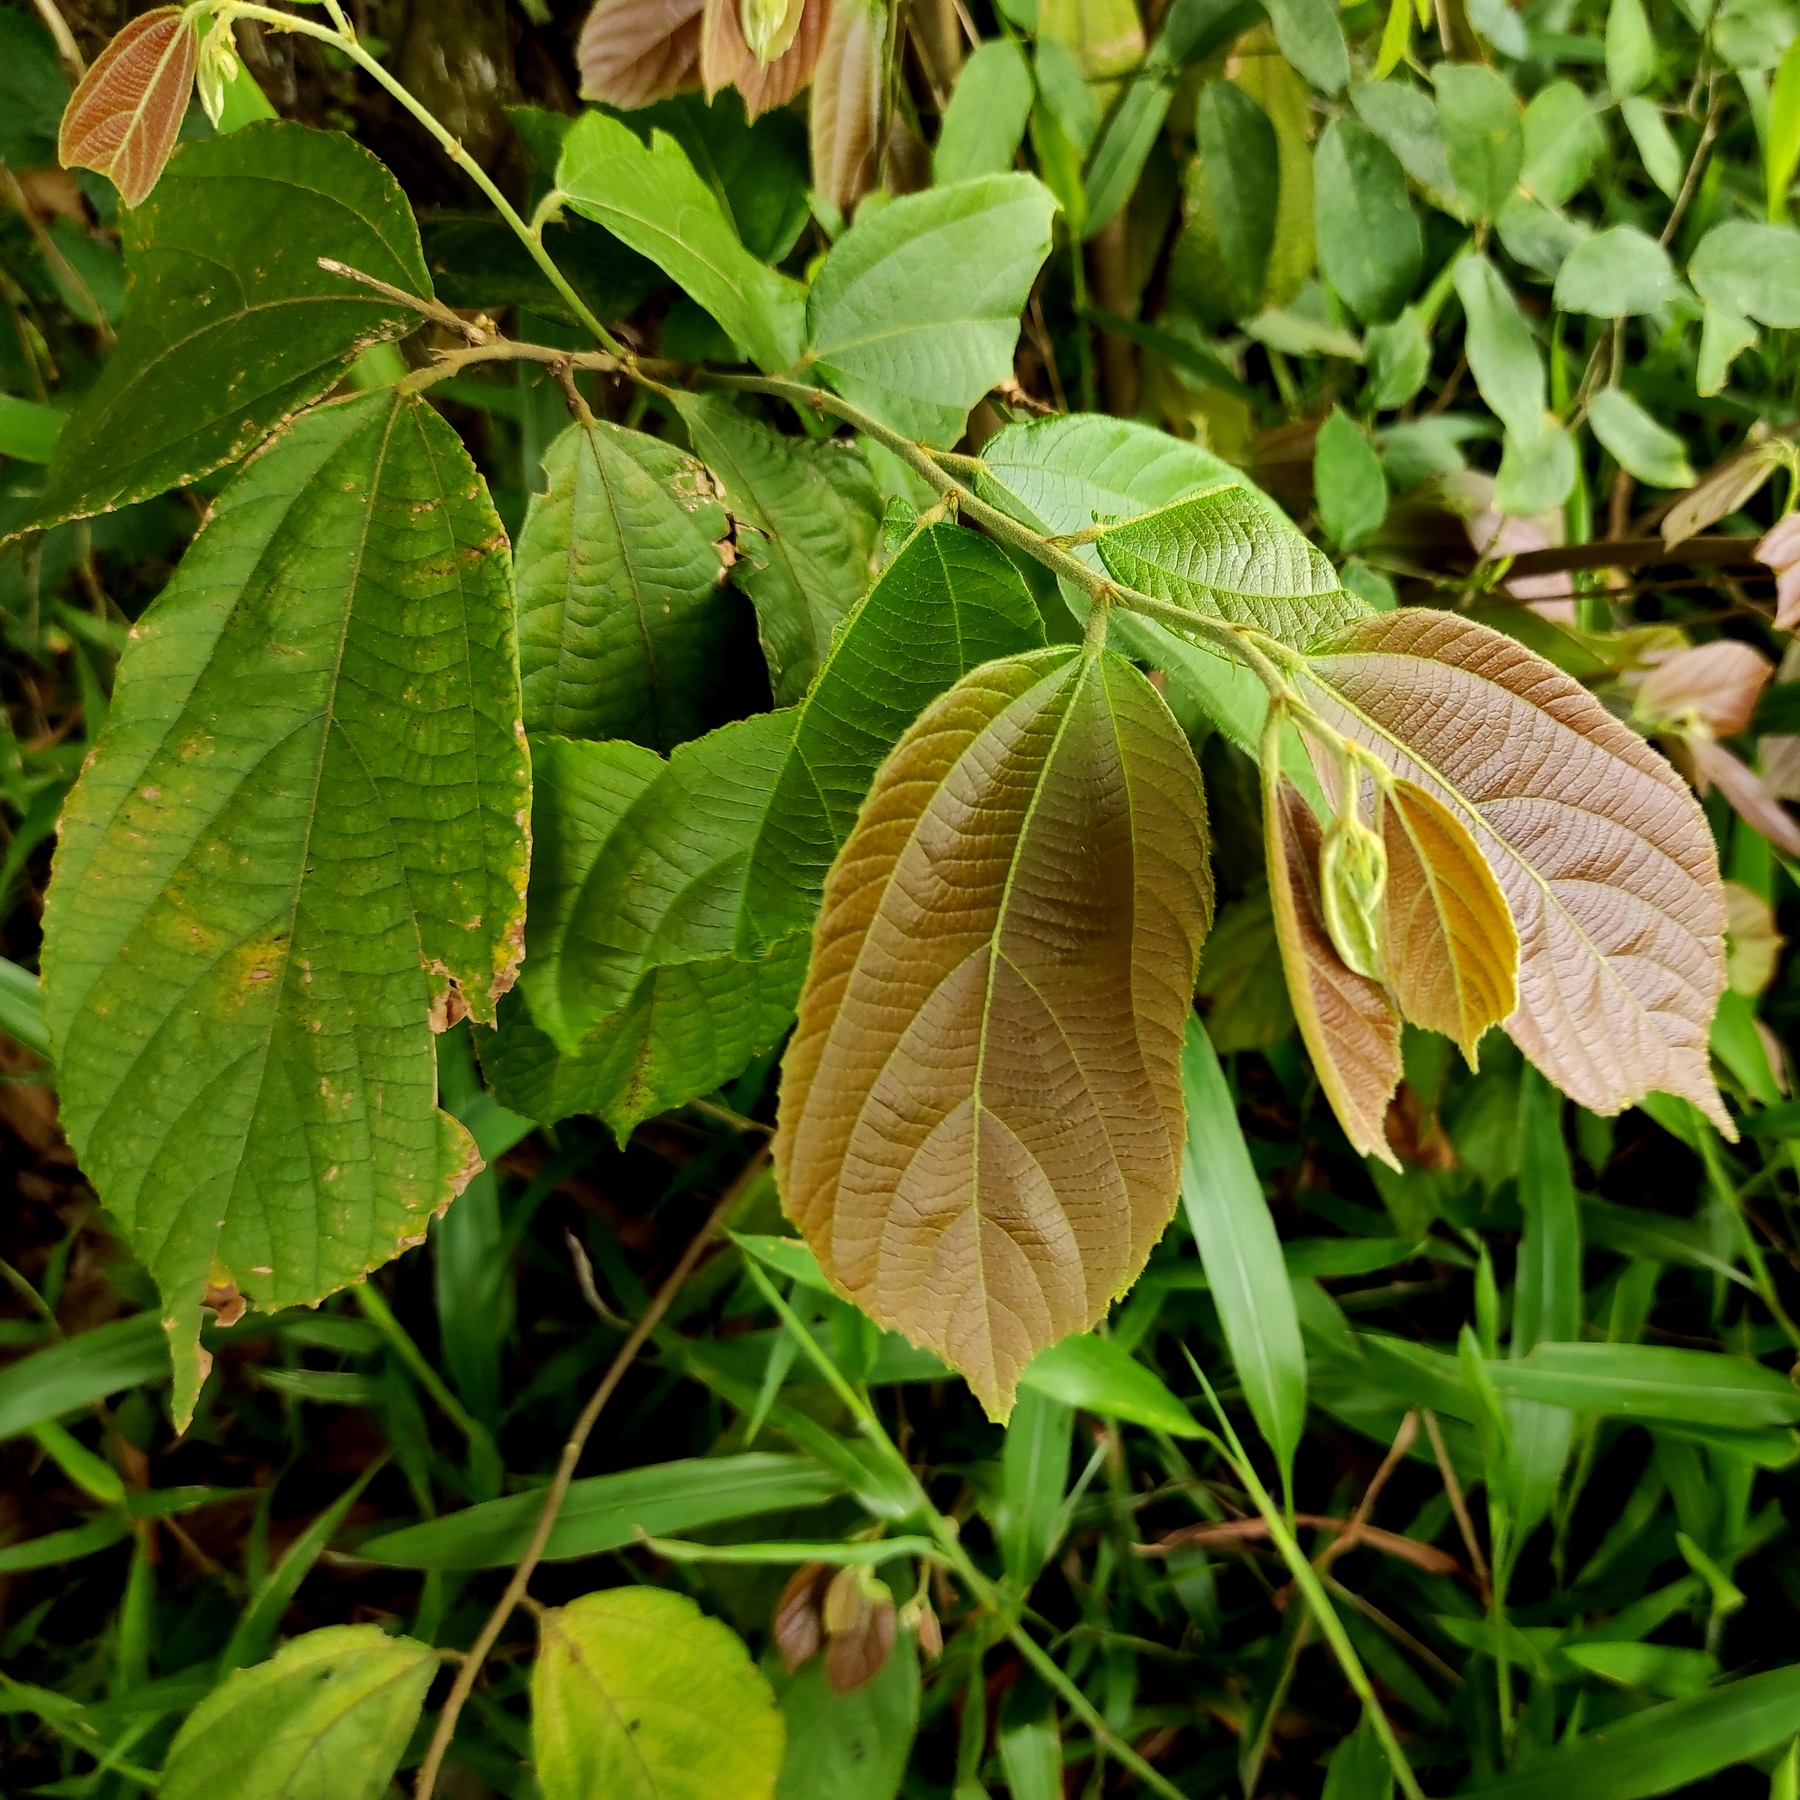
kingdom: Plantae
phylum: Tracheophyta
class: Magnoliopsida
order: Malvales
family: Malvaceae
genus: Microcos
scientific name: Microcos tomentosa
